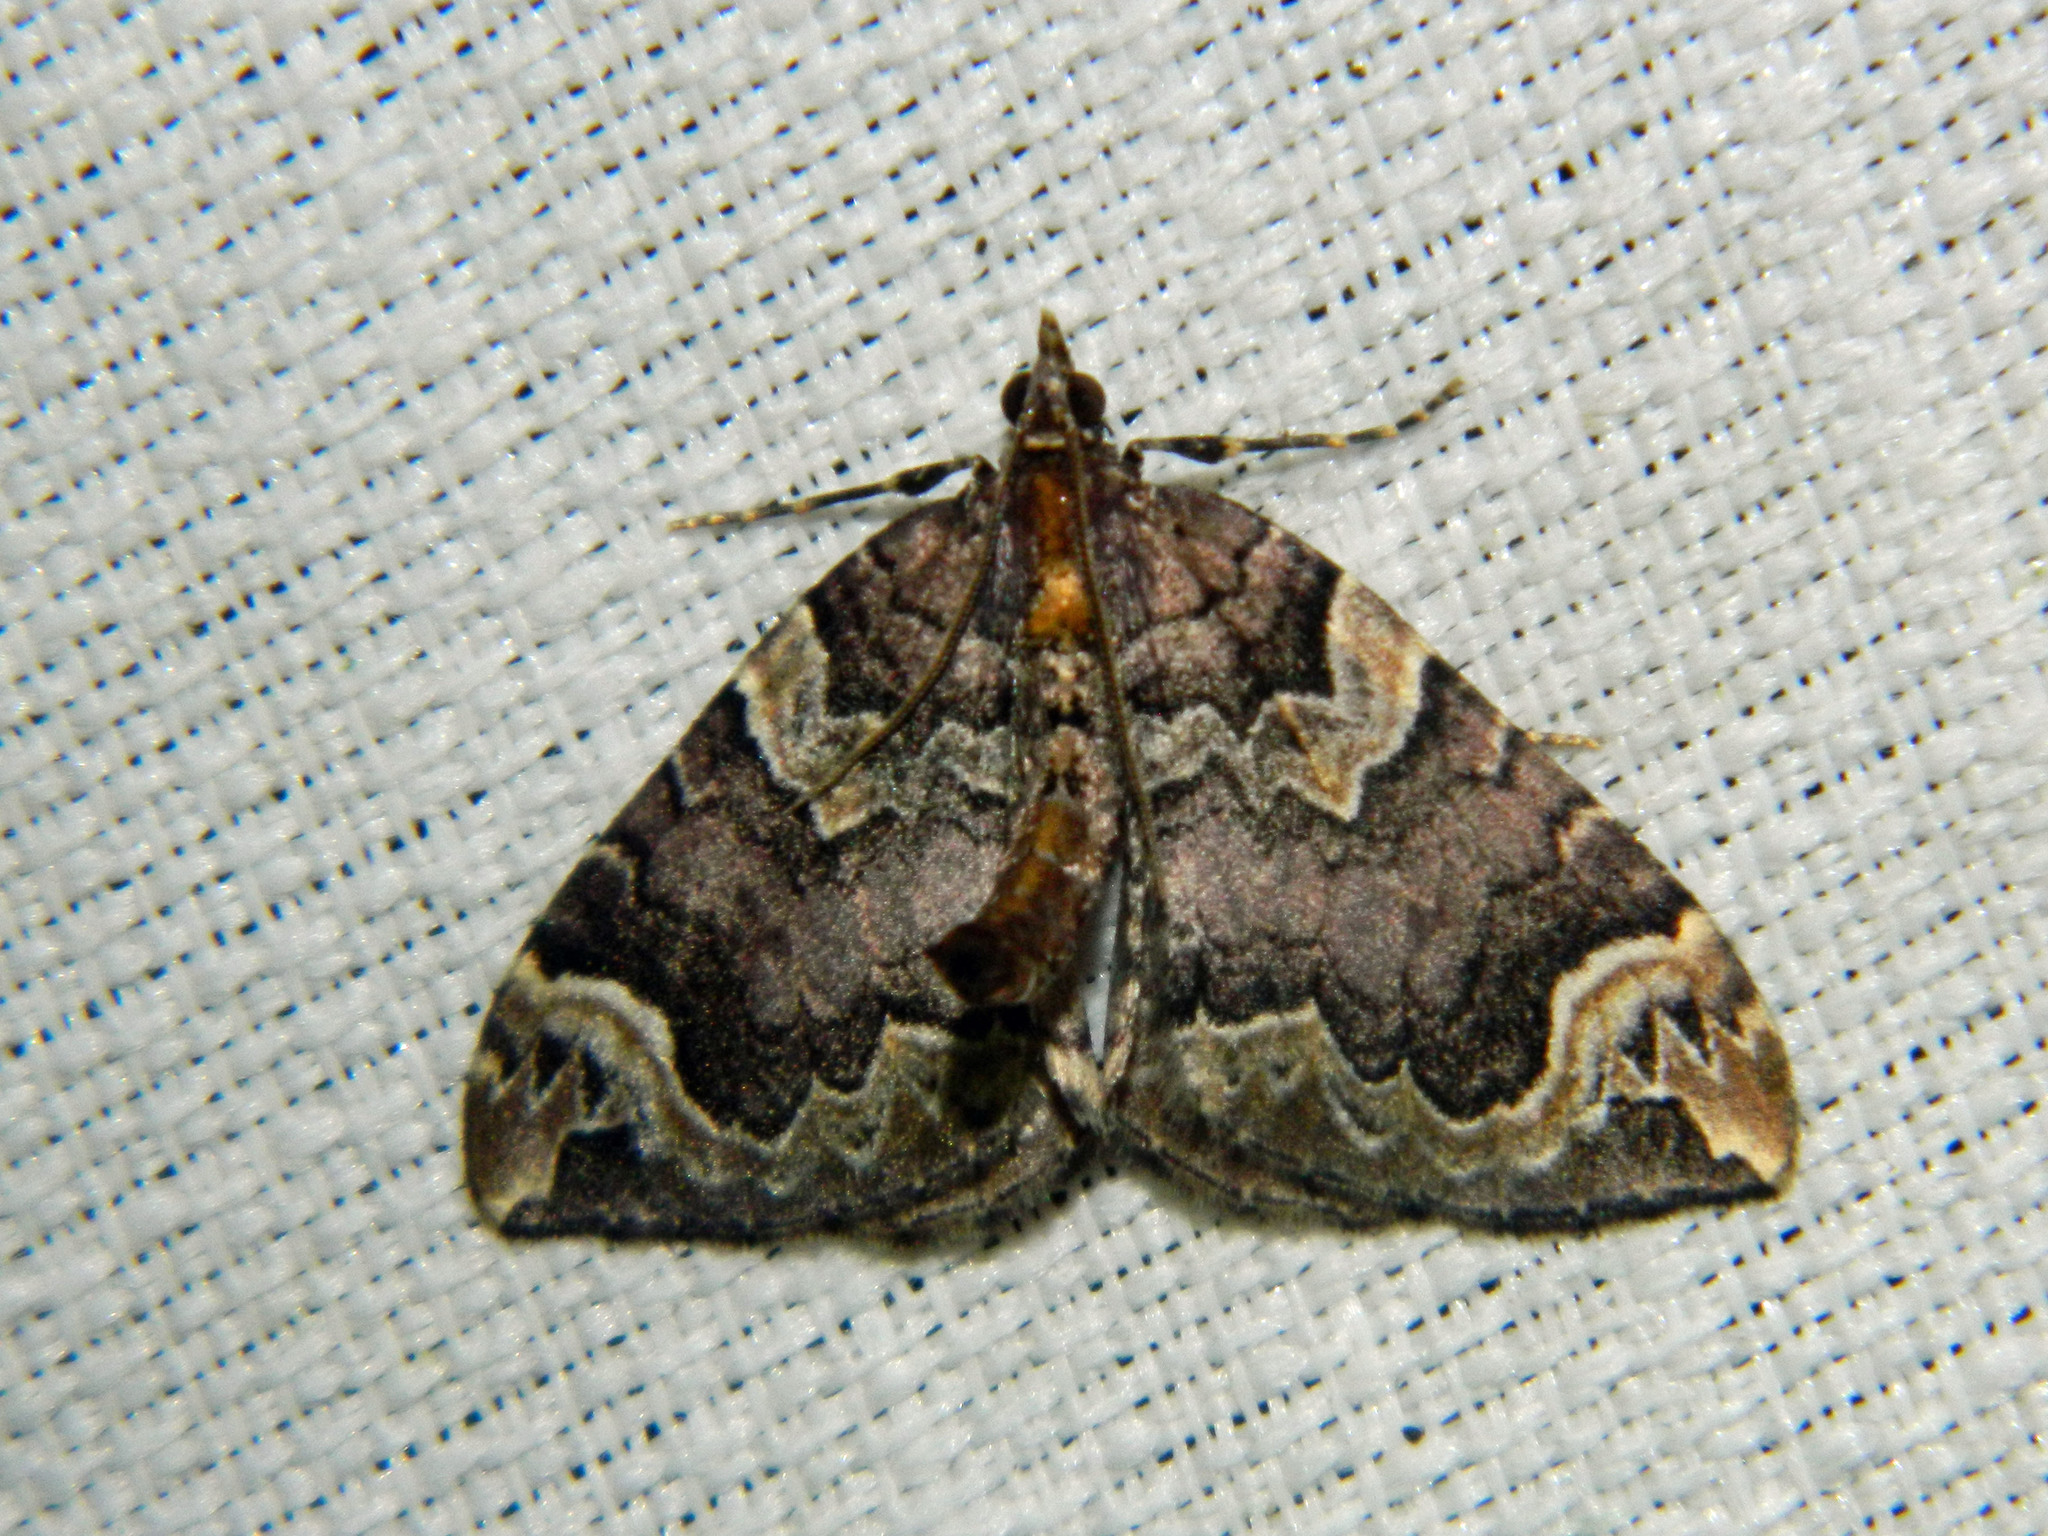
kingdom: Animalia
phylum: Arthropoda
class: Insecta
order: Lepidoptera
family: Geometridae
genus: Eulithis
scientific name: Eulithis serrataria
